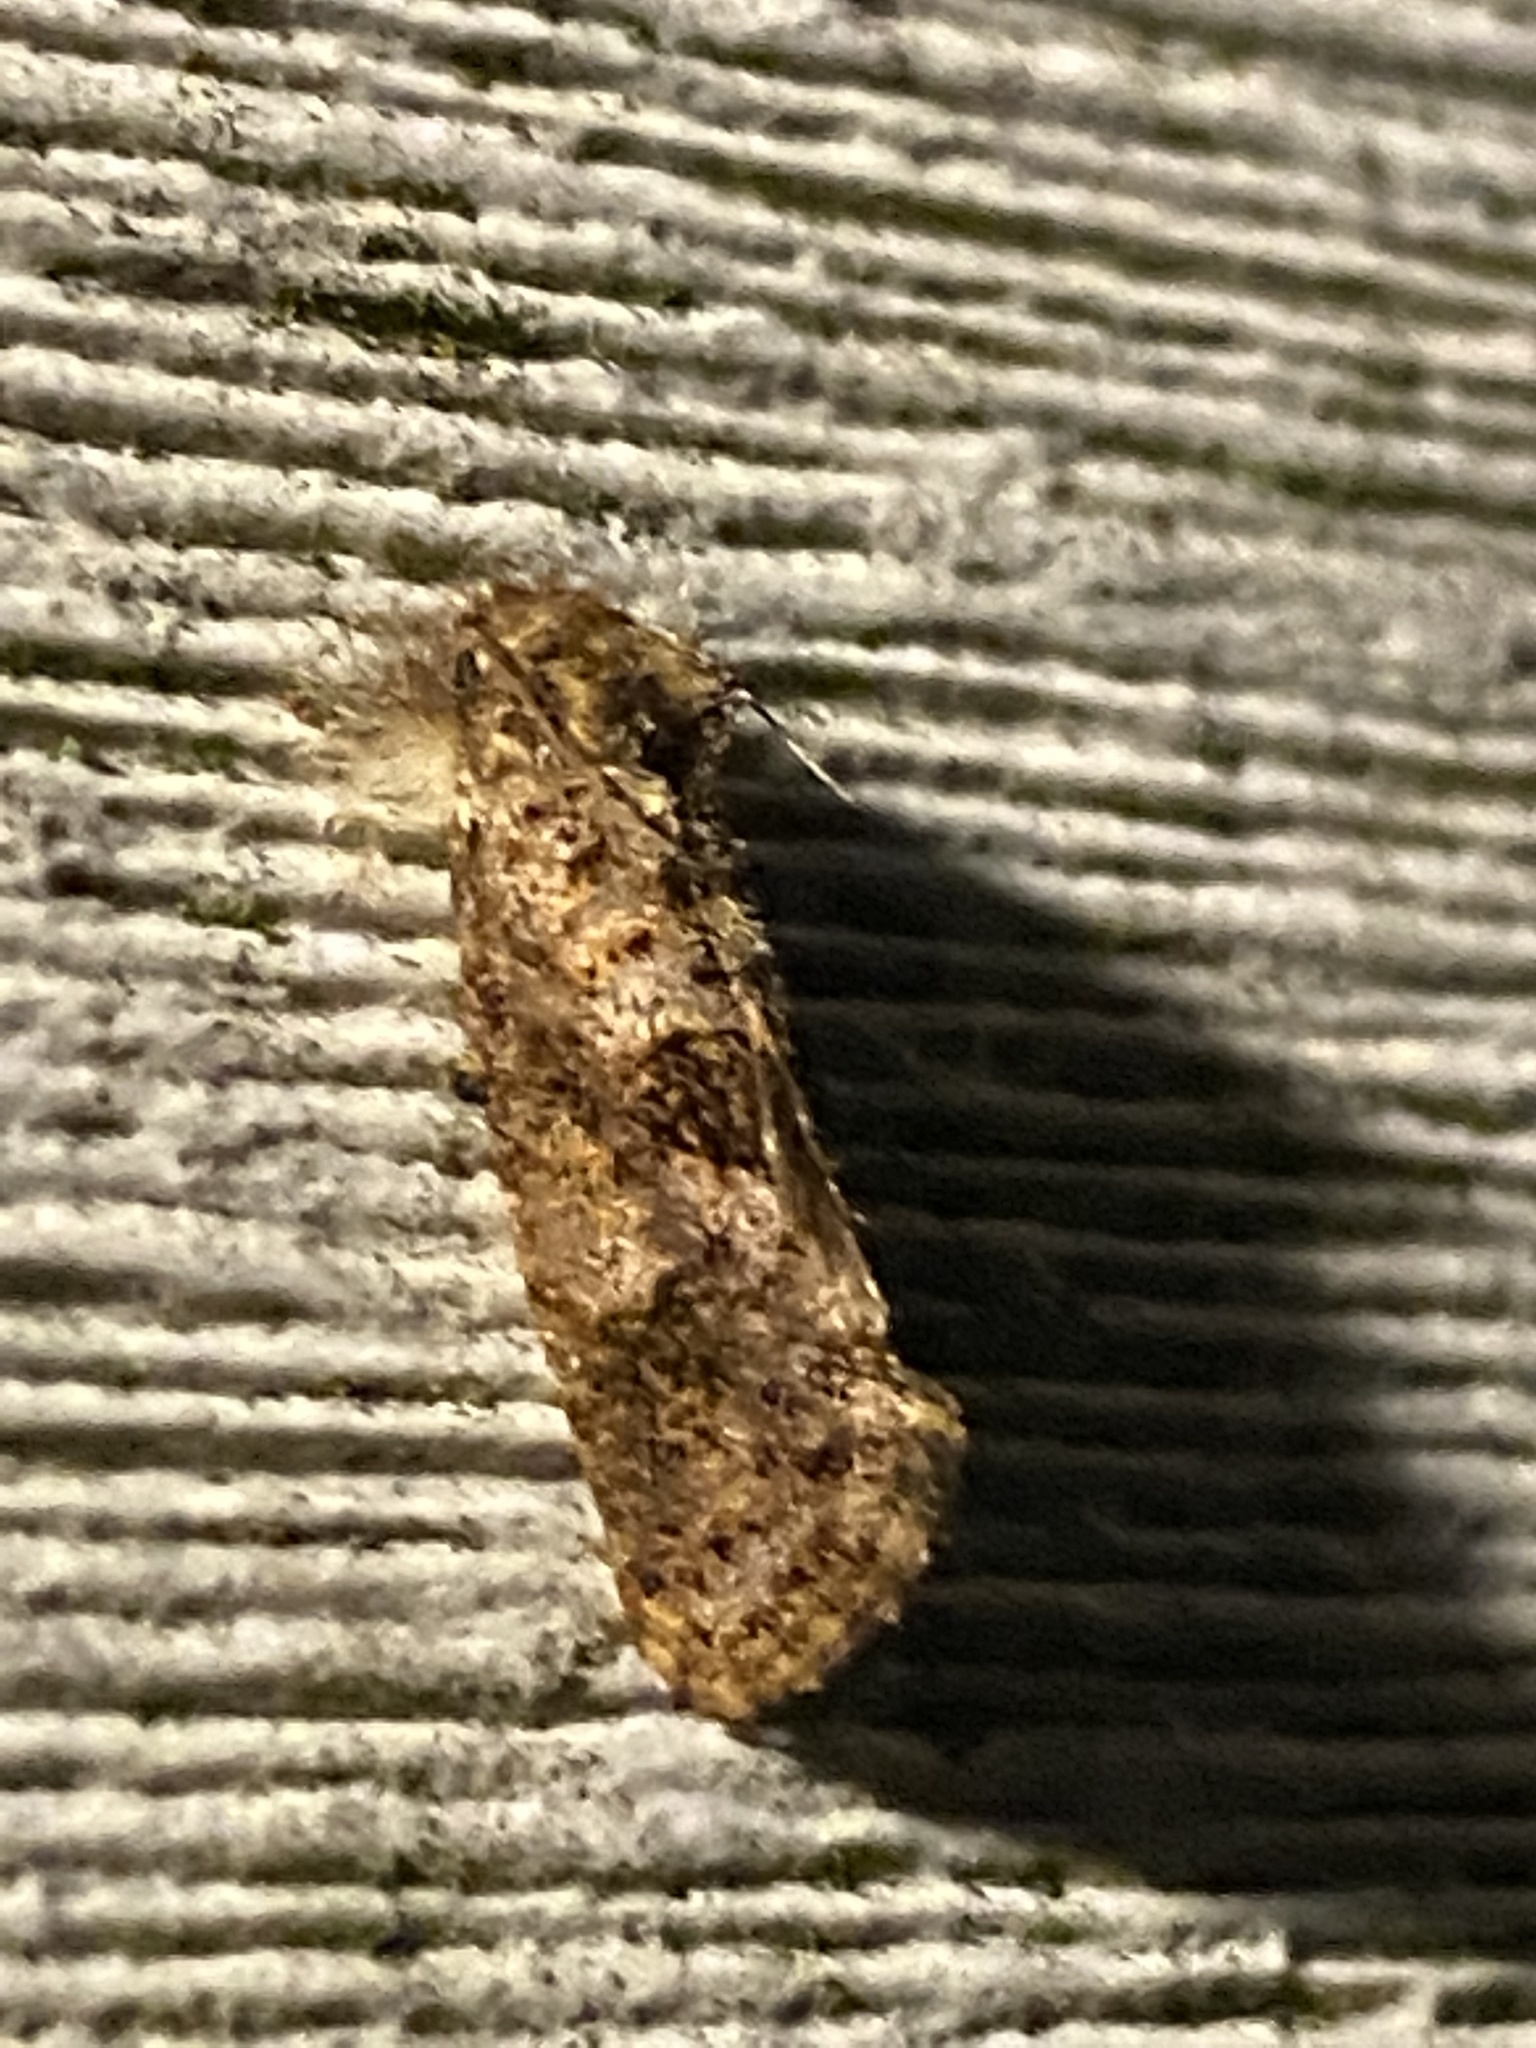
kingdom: Animalia
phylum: Arthropoda
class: Insecta
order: Lepidoptera
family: Tineidae
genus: Acrolophus
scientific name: Acrolophus panamae
